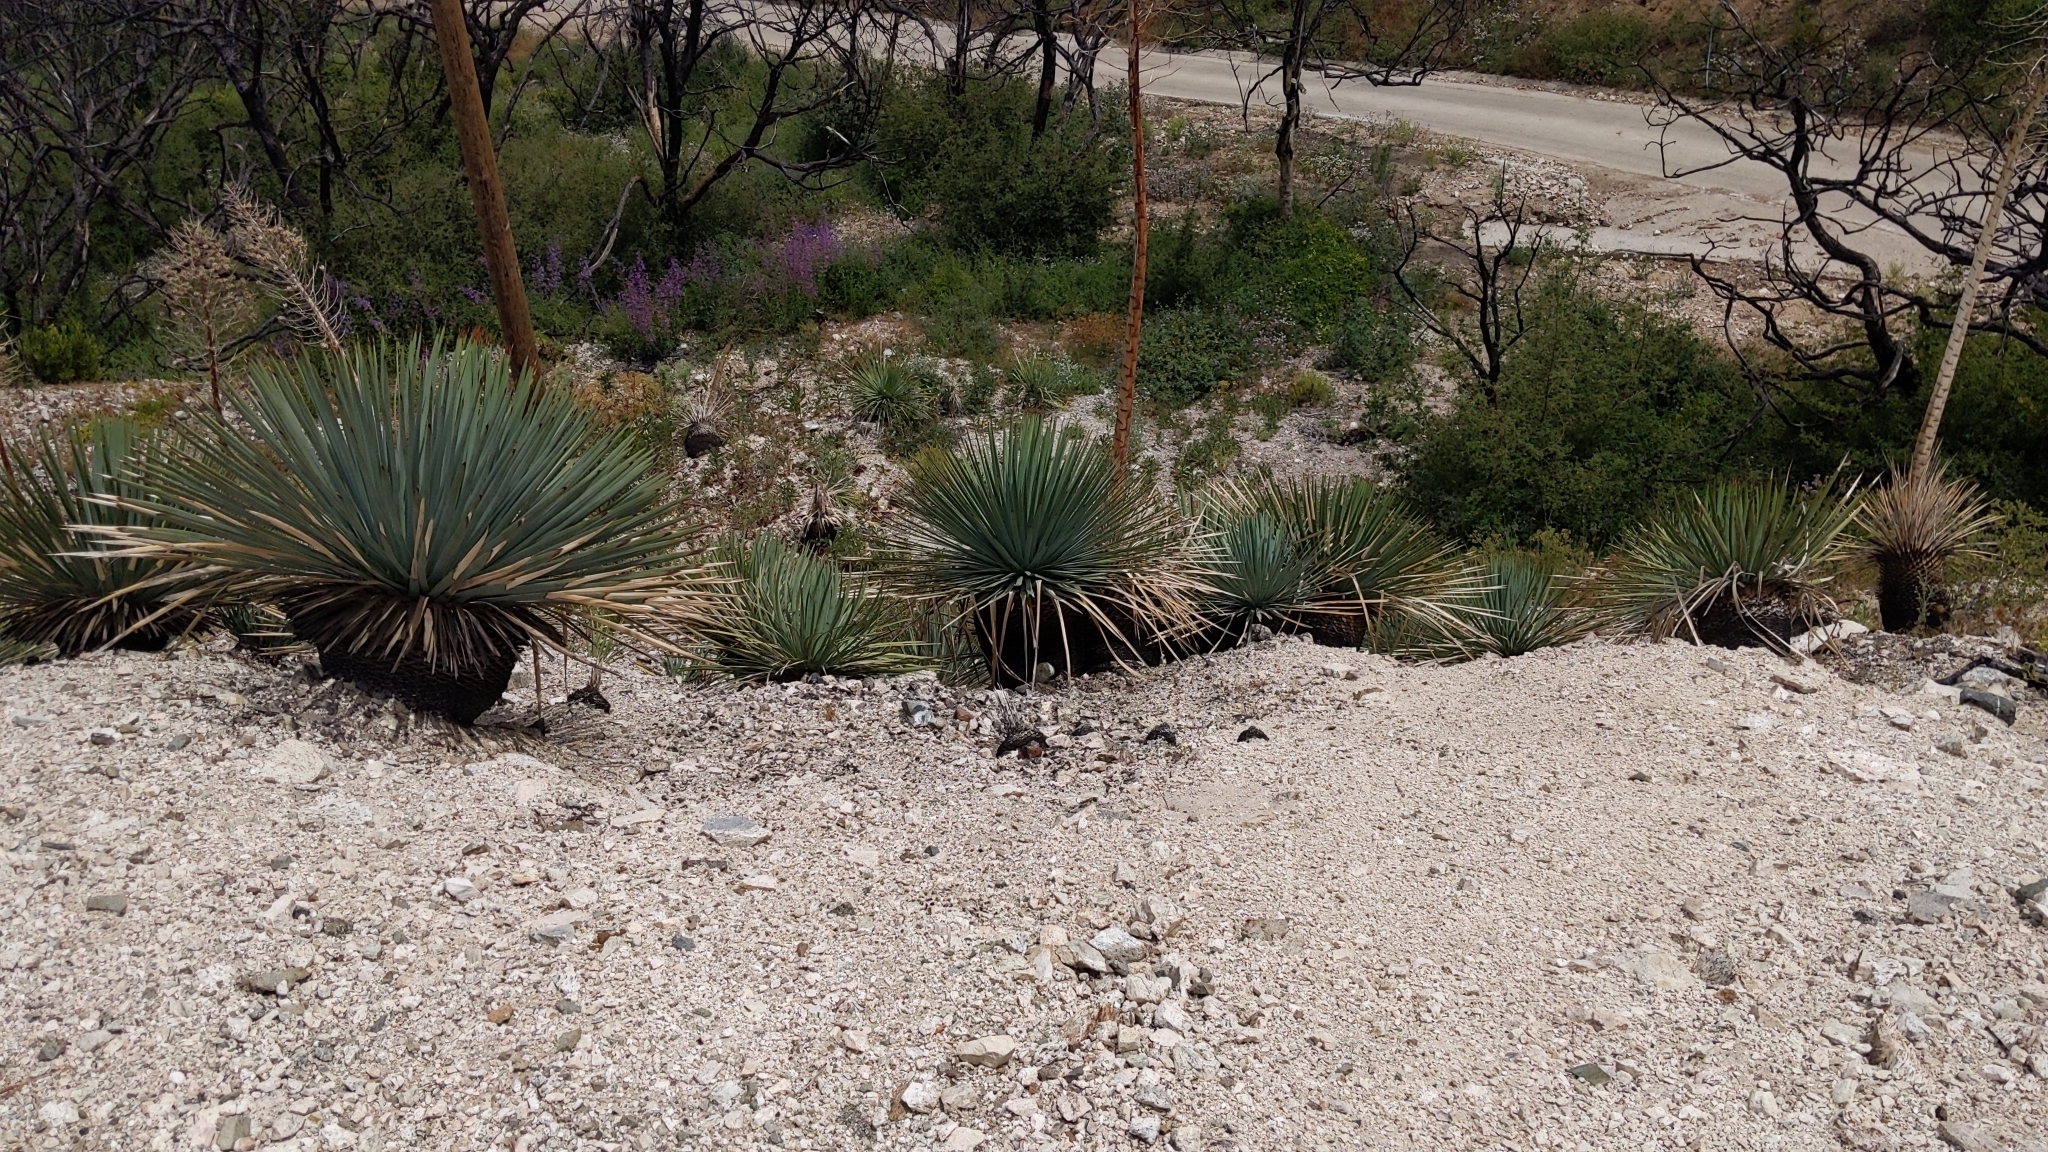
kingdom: Plantae
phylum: Tracheophyta
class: Liliopsida
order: Asparagales
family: Asparagaceae
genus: Hesperoyucca
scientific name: Hesperoyucca whipplei
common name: Our lord's-candle
